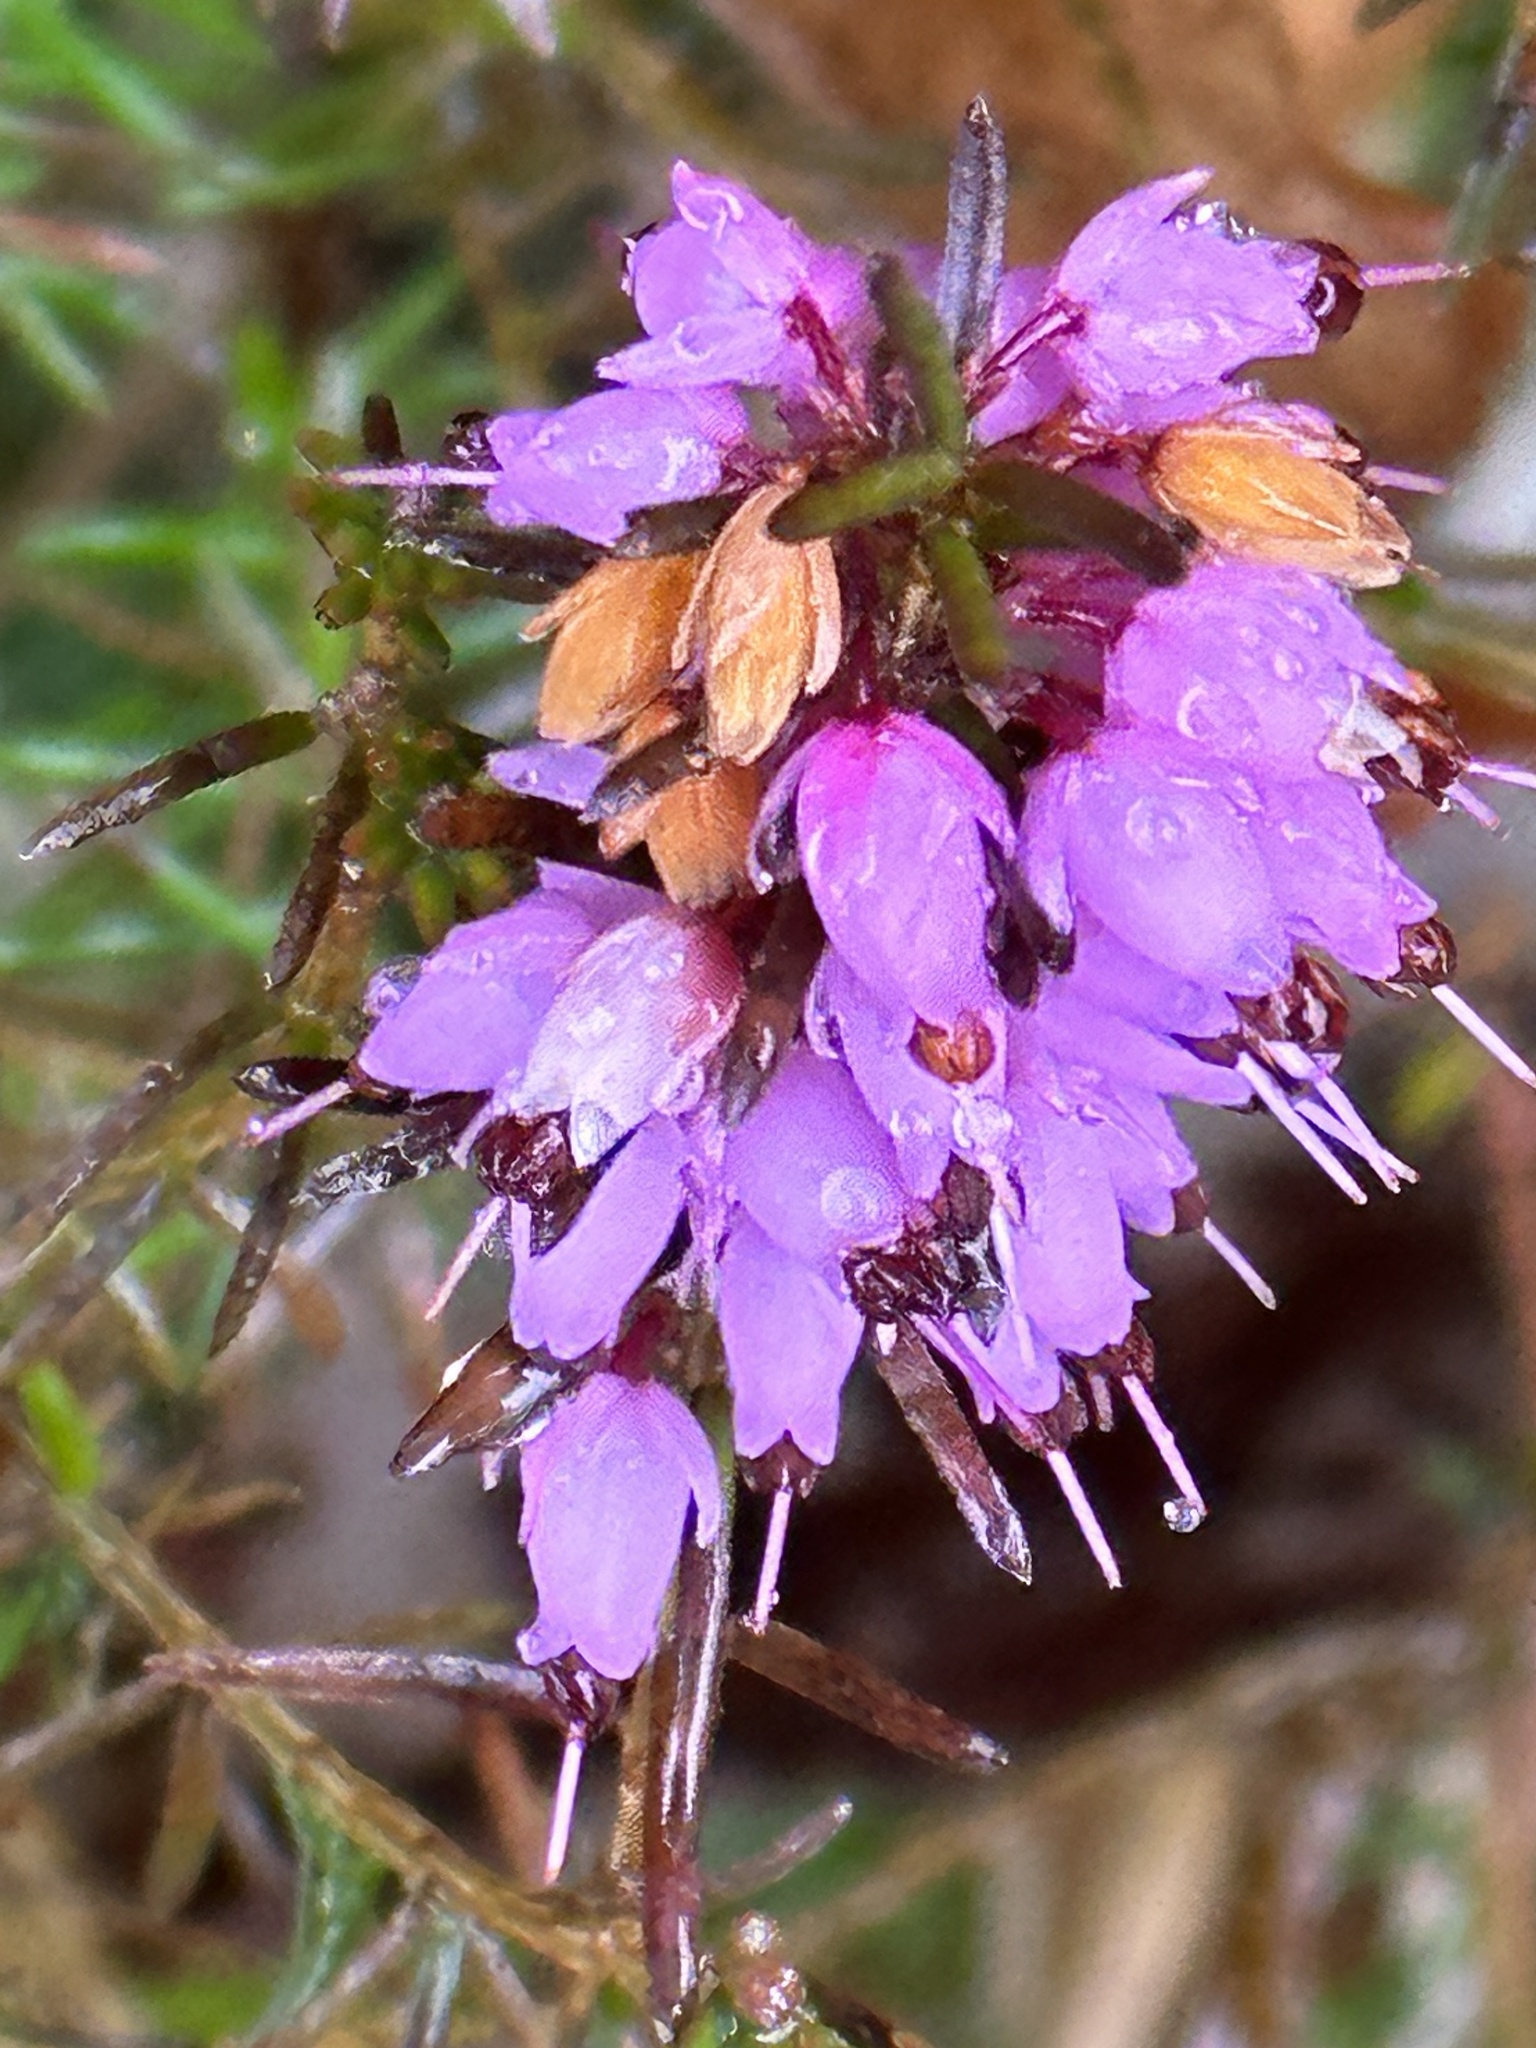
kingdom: Plantae
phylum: Tracheophyta
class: Magnoliopsida
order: Ericales
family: Ericaceae
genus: Erica
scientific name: Erica carnea
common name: Winter heath
